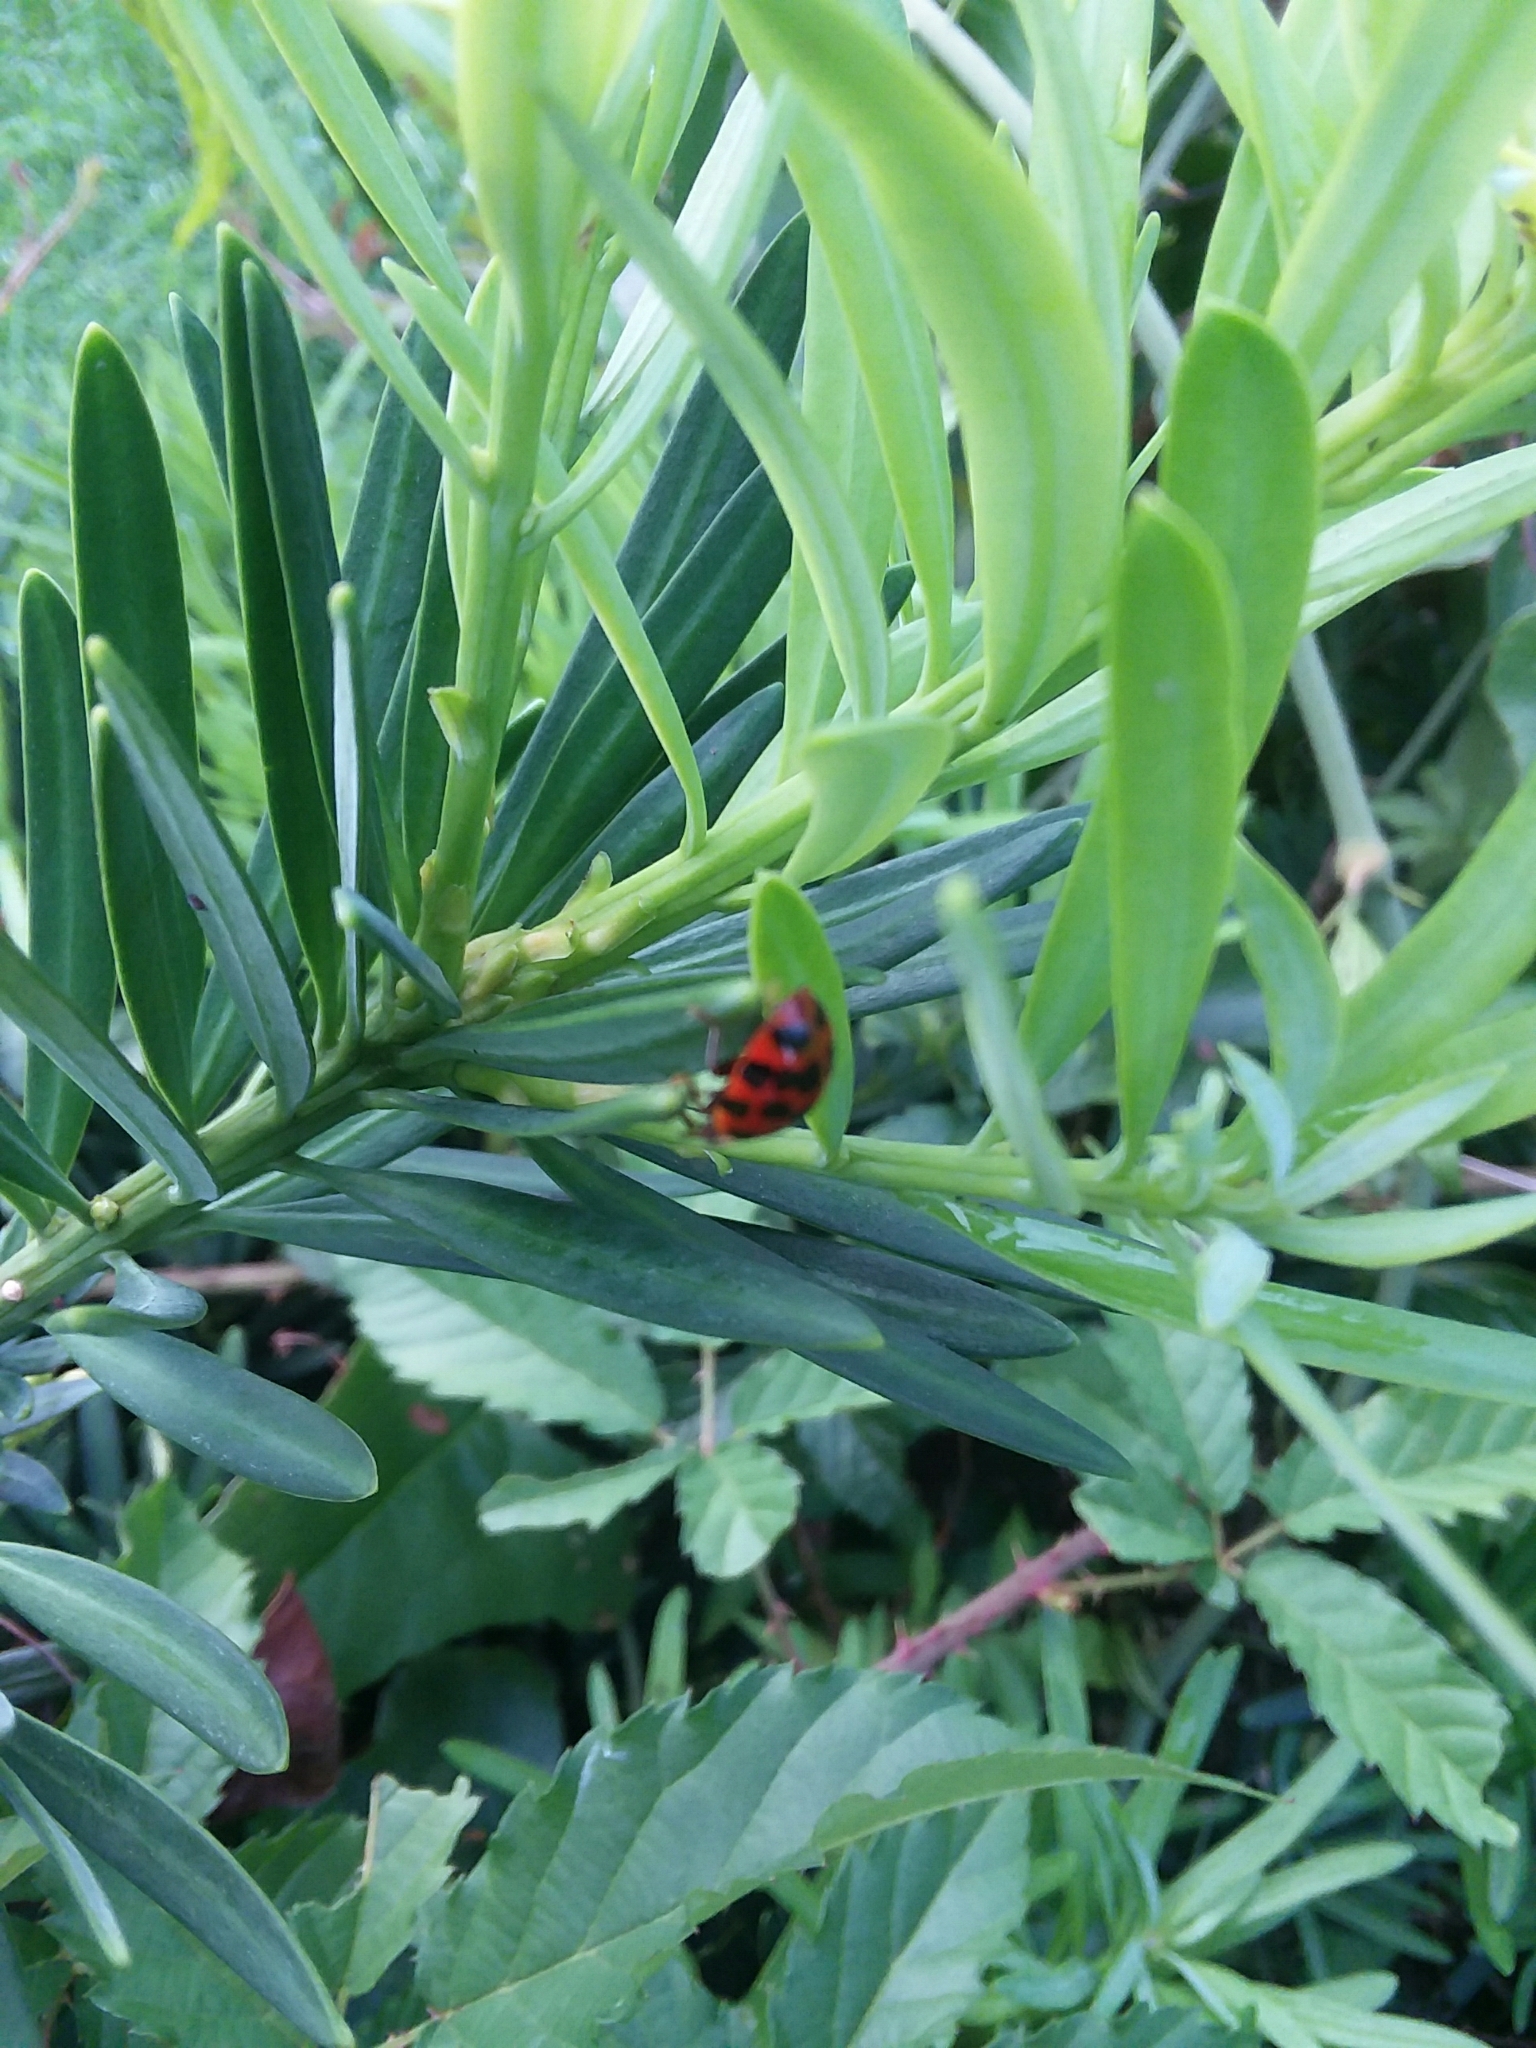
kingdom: Animalia
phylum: Arthropoda
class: Insecta
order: Coleoptera
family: Coccinellidae
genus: Harmonia
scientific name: Harmonia axyridis
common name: Harlequin ladybird
